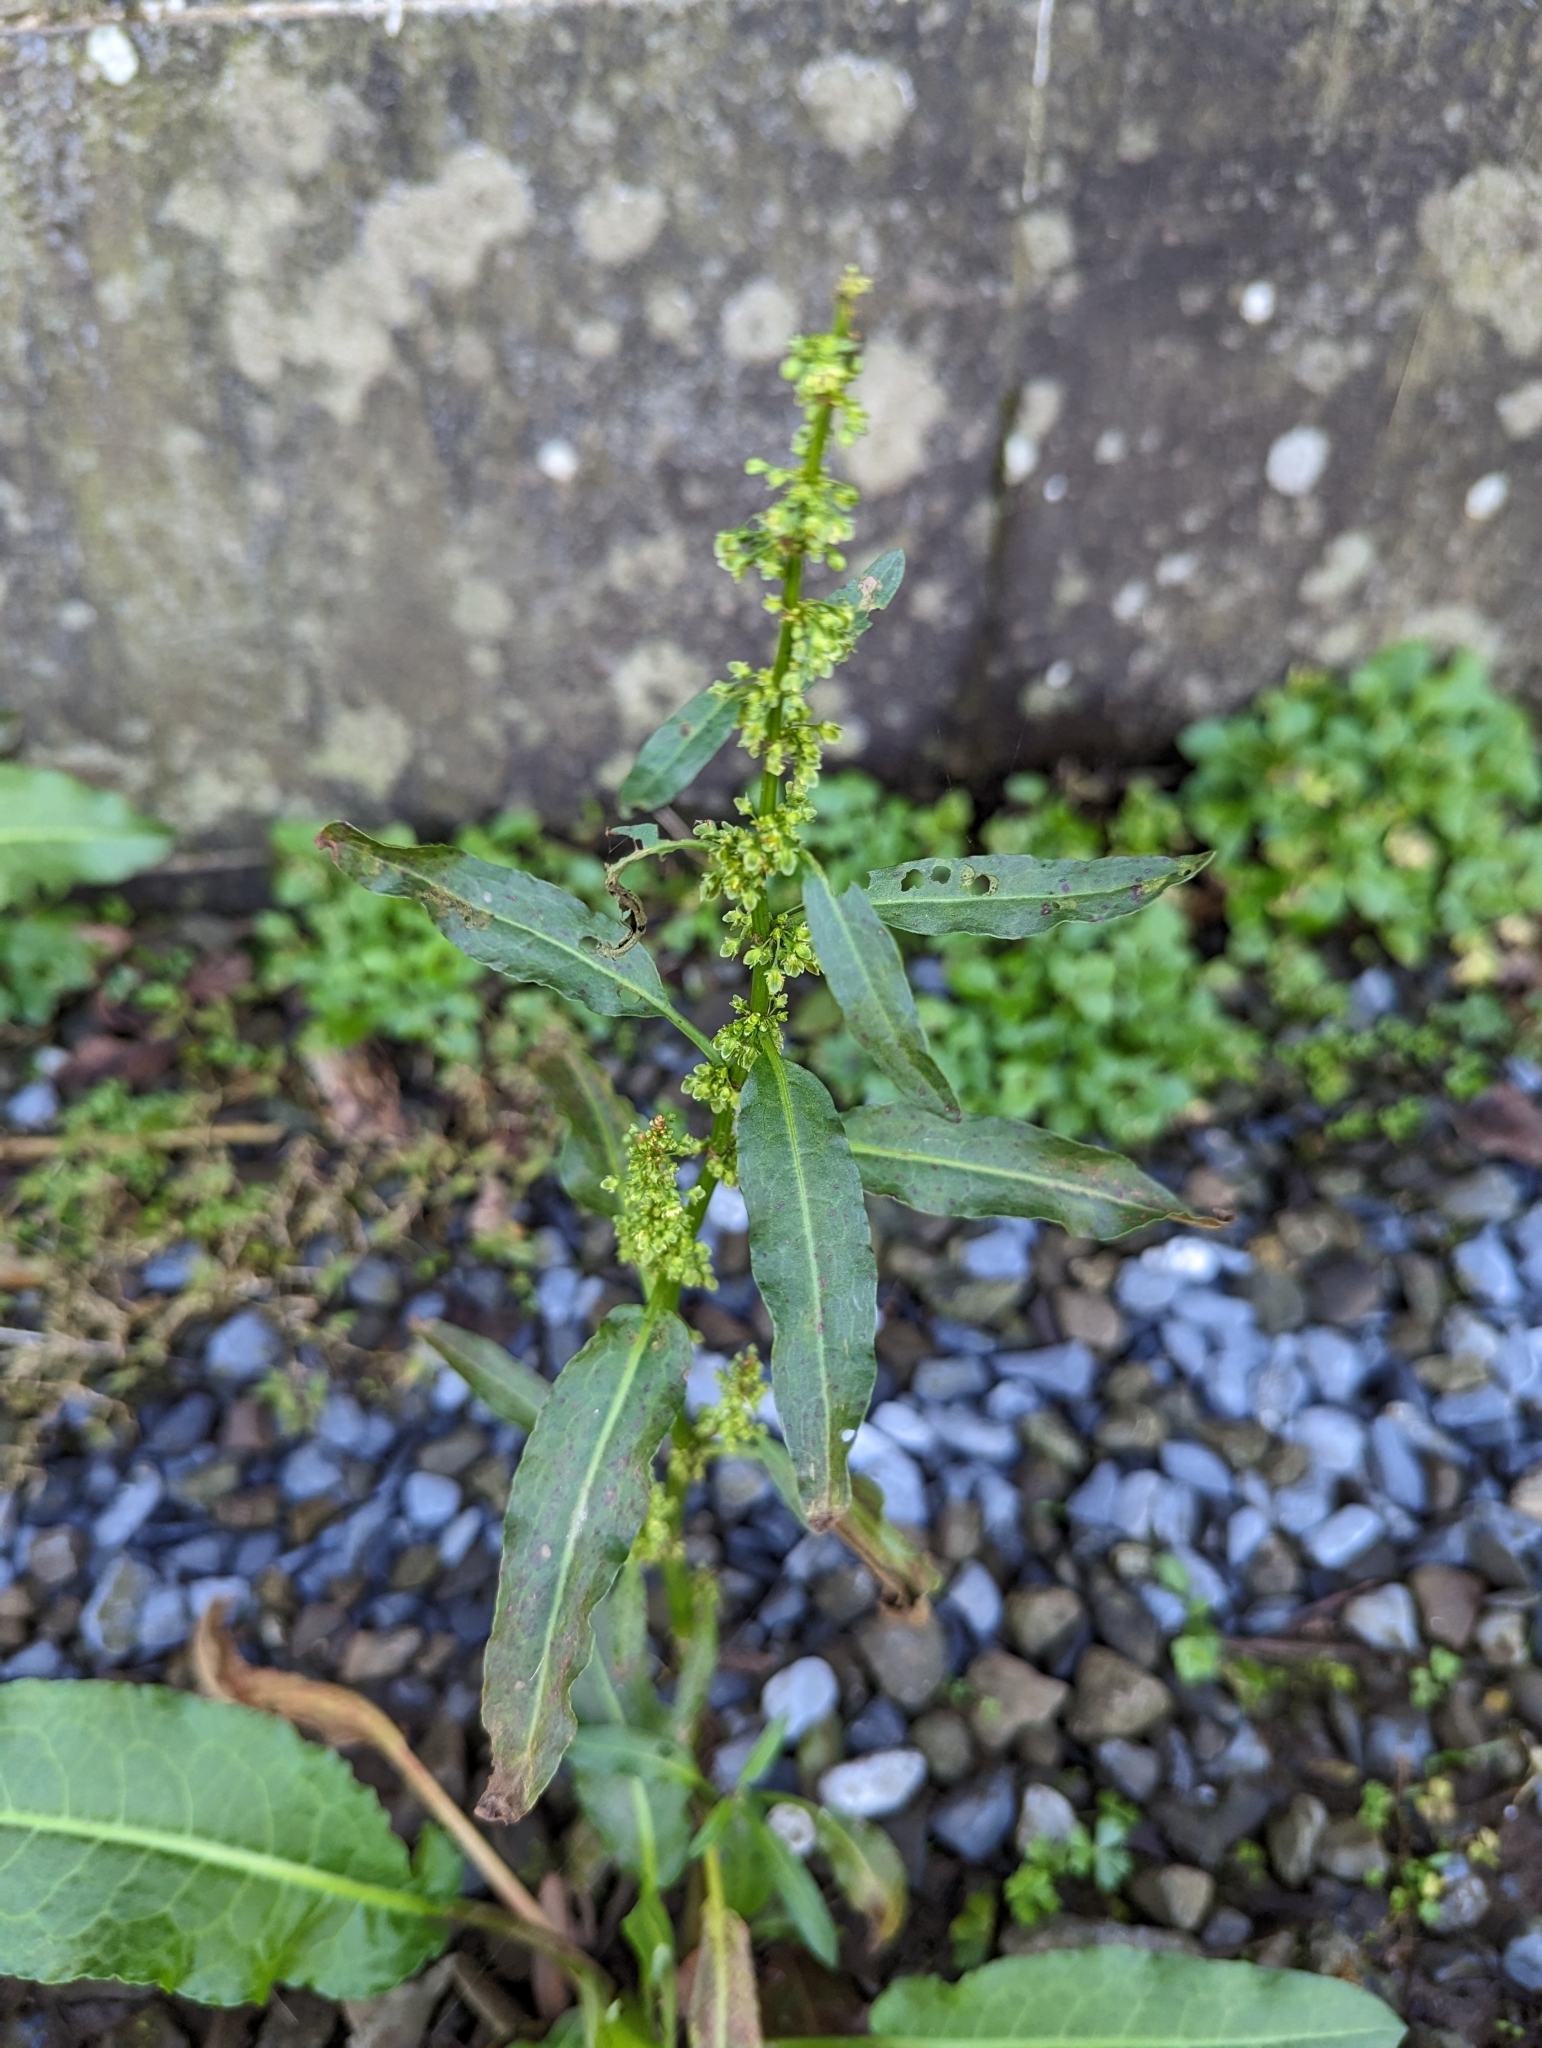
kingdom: Plantae
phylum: Tracheophyta
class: Magnoliopsida
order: Caryophyllales
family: Polygonaceae
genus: Rumex
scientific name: Rumex japonicus
